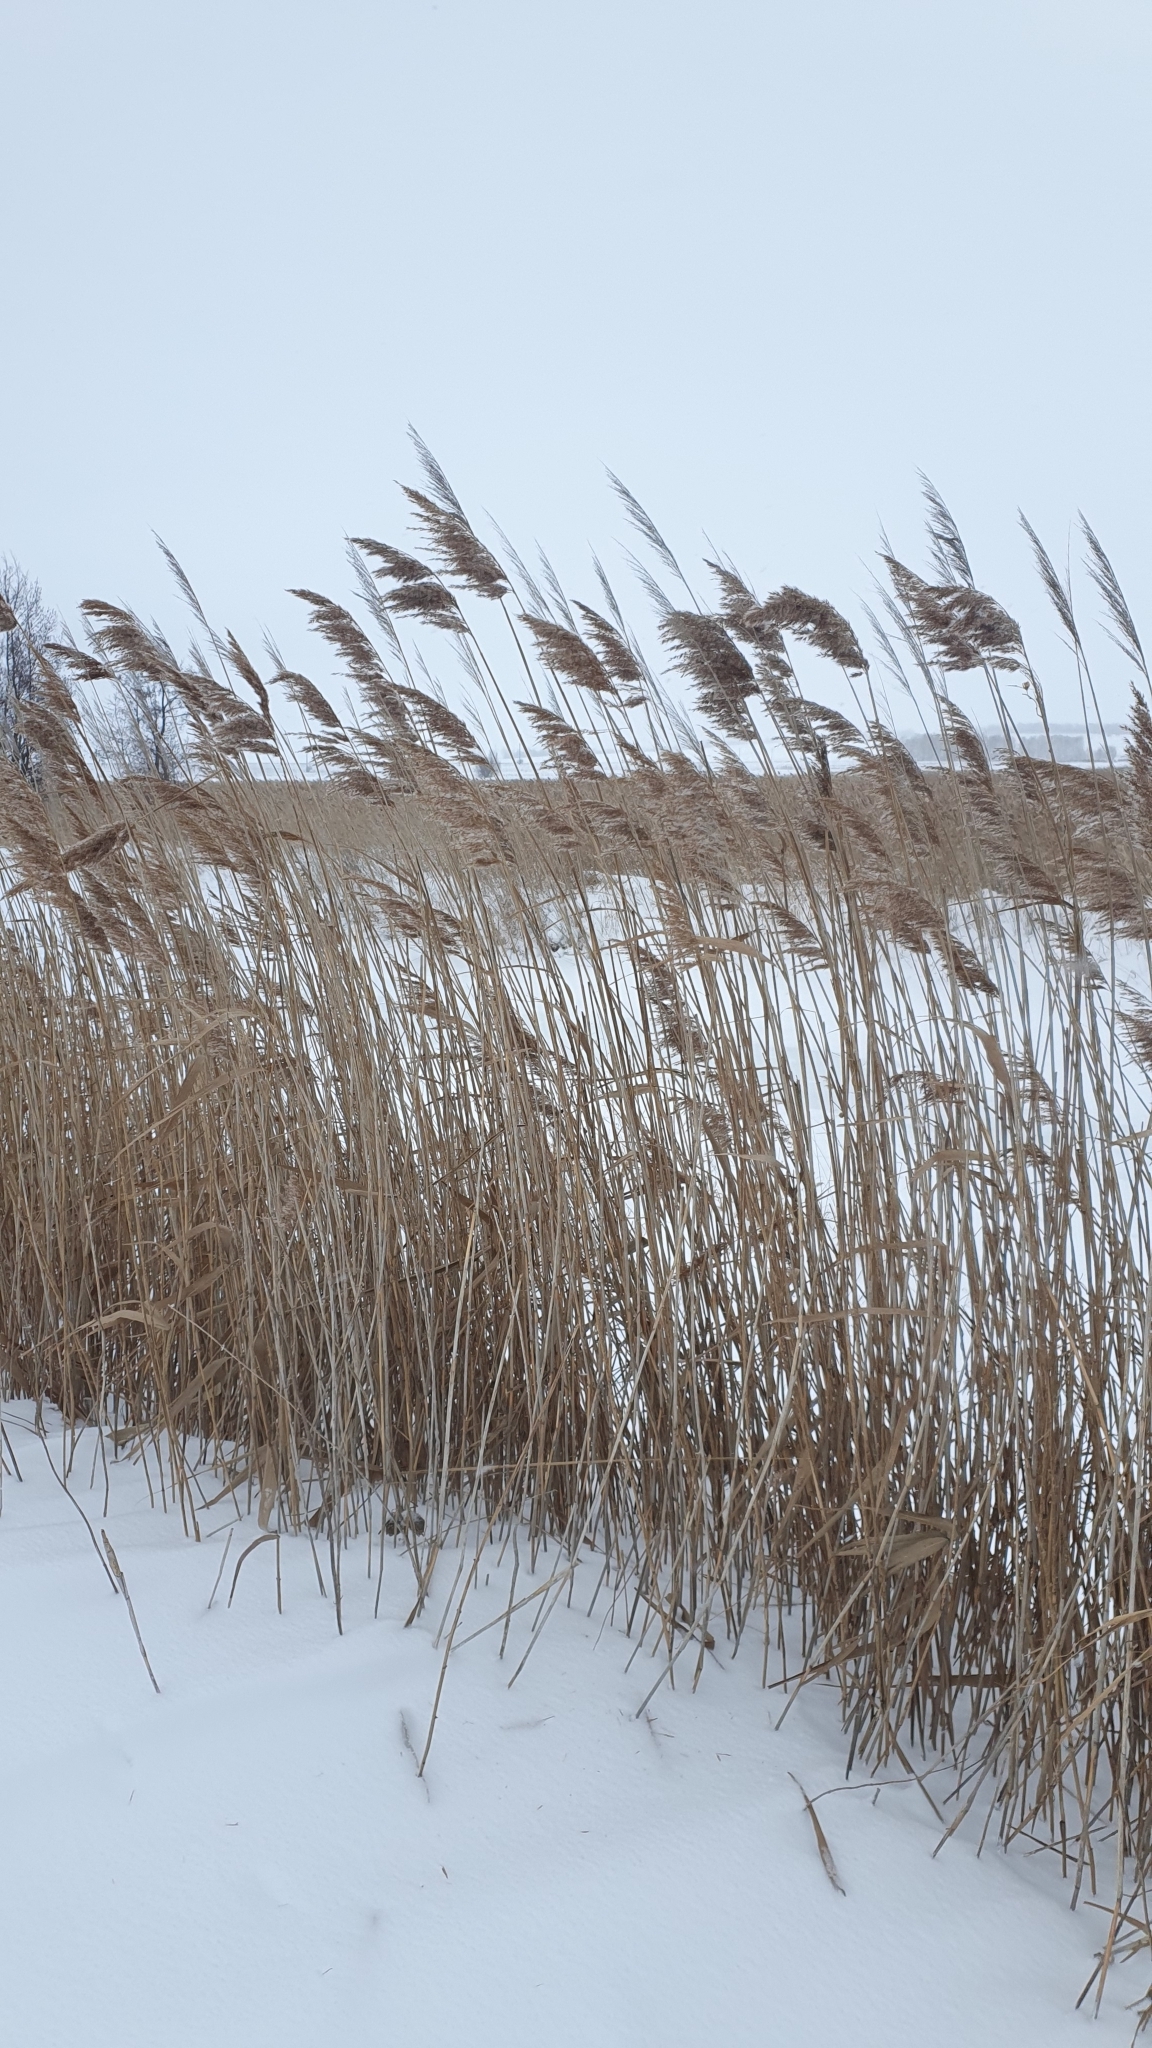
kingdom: Plantae
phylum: Tracheophyta
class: Liliopsida
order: Poales
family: Poaceae
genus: Phragmites
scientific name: Phragmites australis
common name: Common reed
